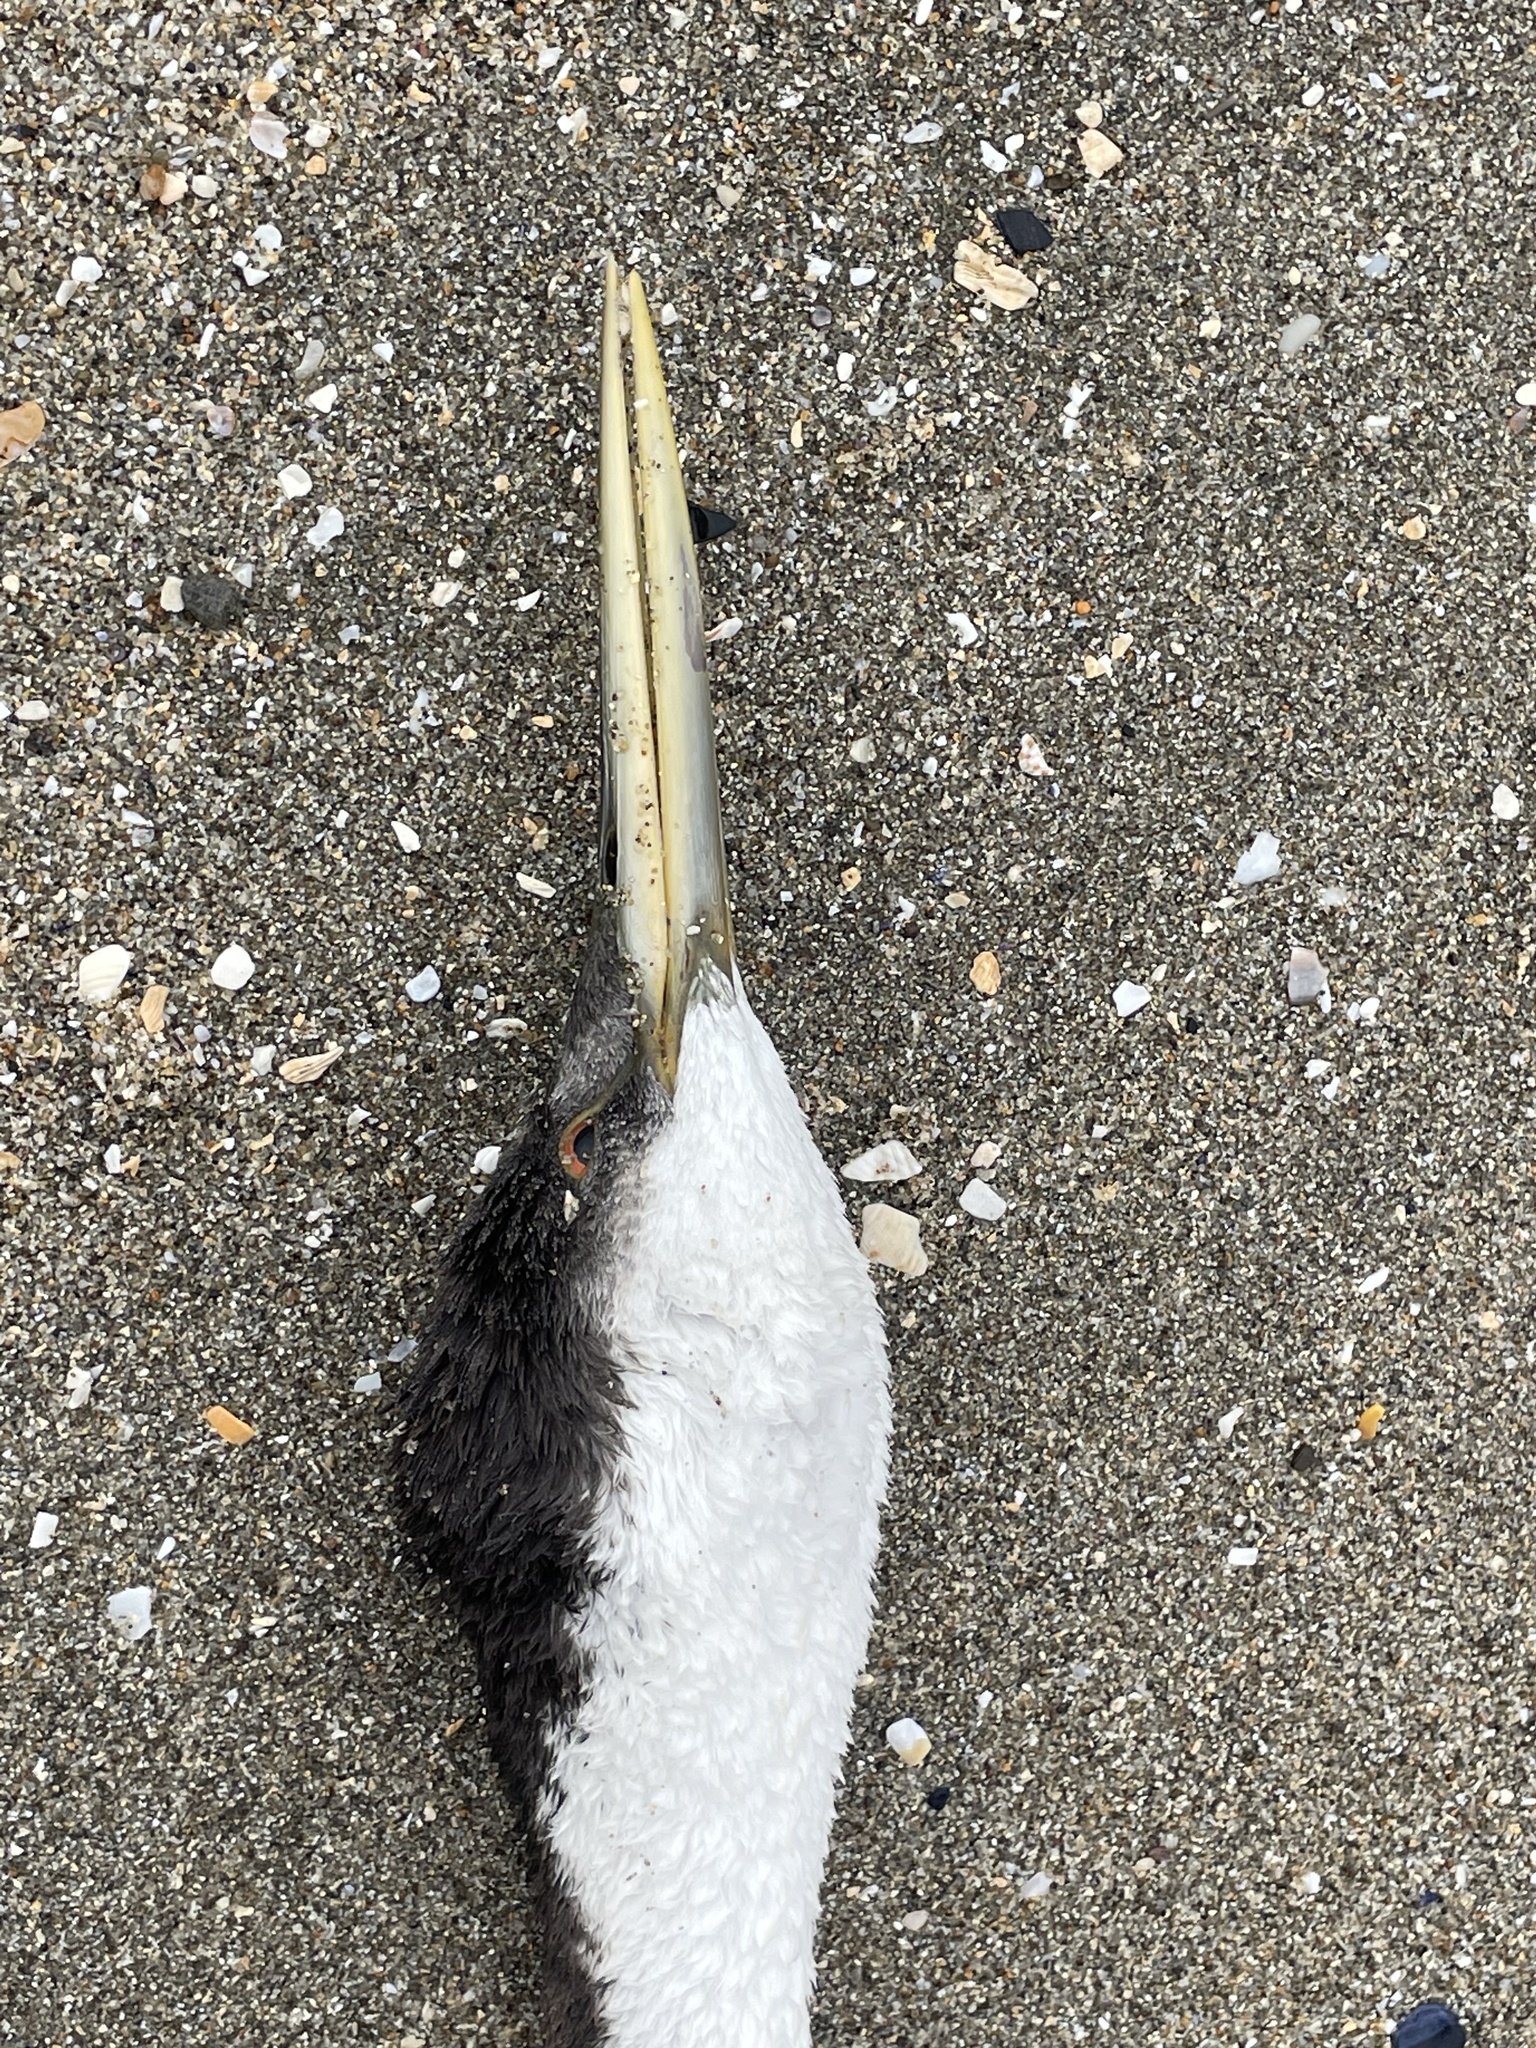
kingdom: Animalia
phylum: Chordata
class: Aves
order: Podicipediformes
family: Podicipedidae
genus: Aechmophorus
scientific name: Aechmophorus occidentalis
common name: Western grebe
